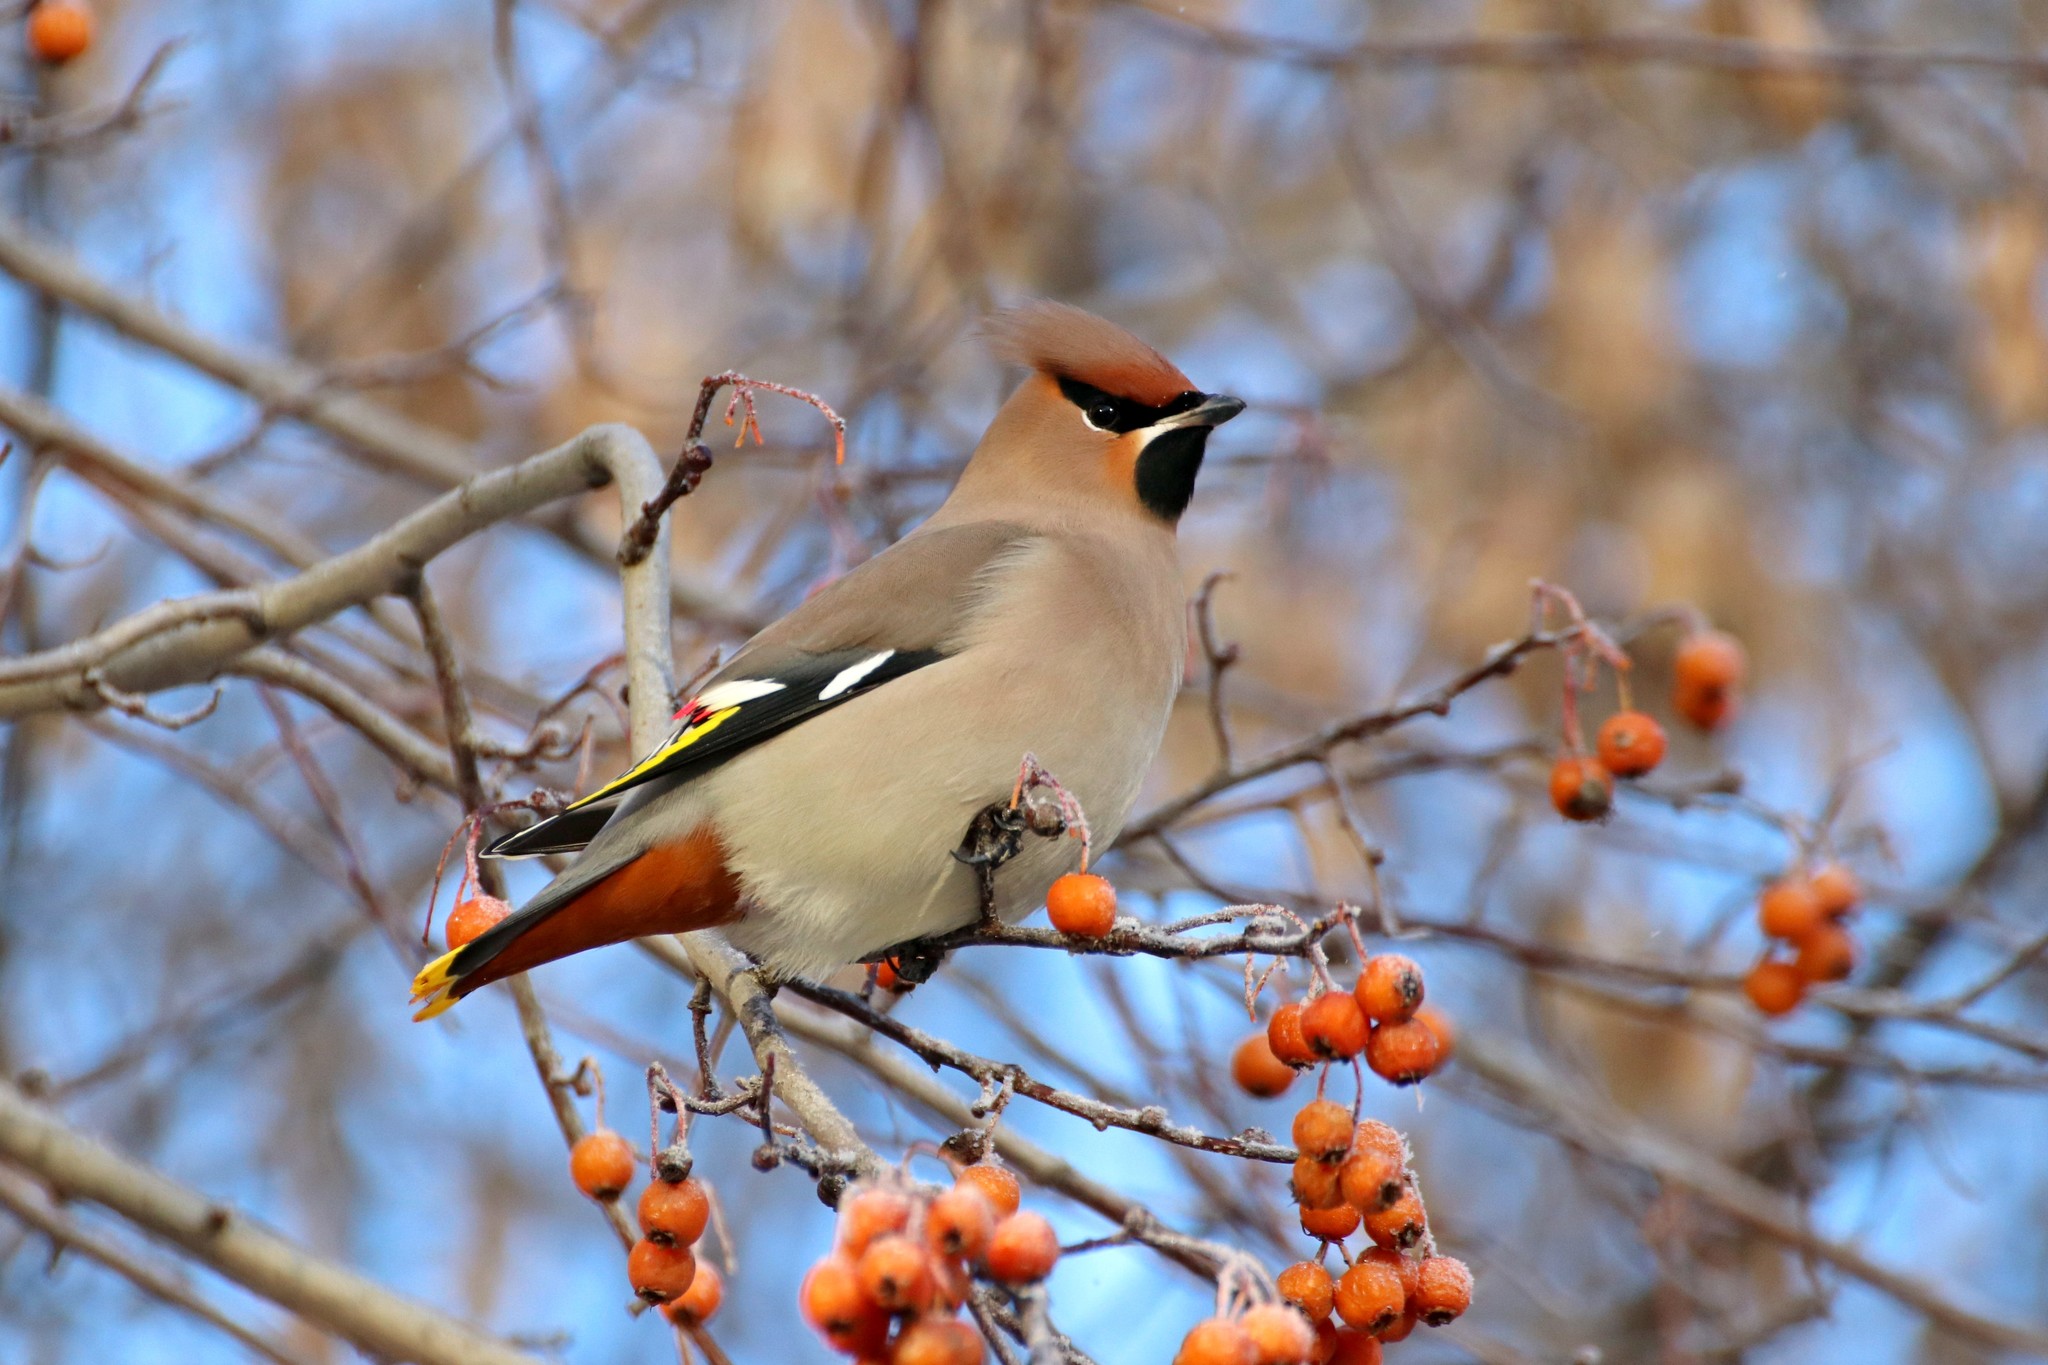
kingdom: Animalia
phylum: Chordata
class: Aves
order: Passeriformes
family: Bombycillidae
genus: Bombycilla
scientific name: Bombycilla garrulus
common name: Bohemian waxwing
